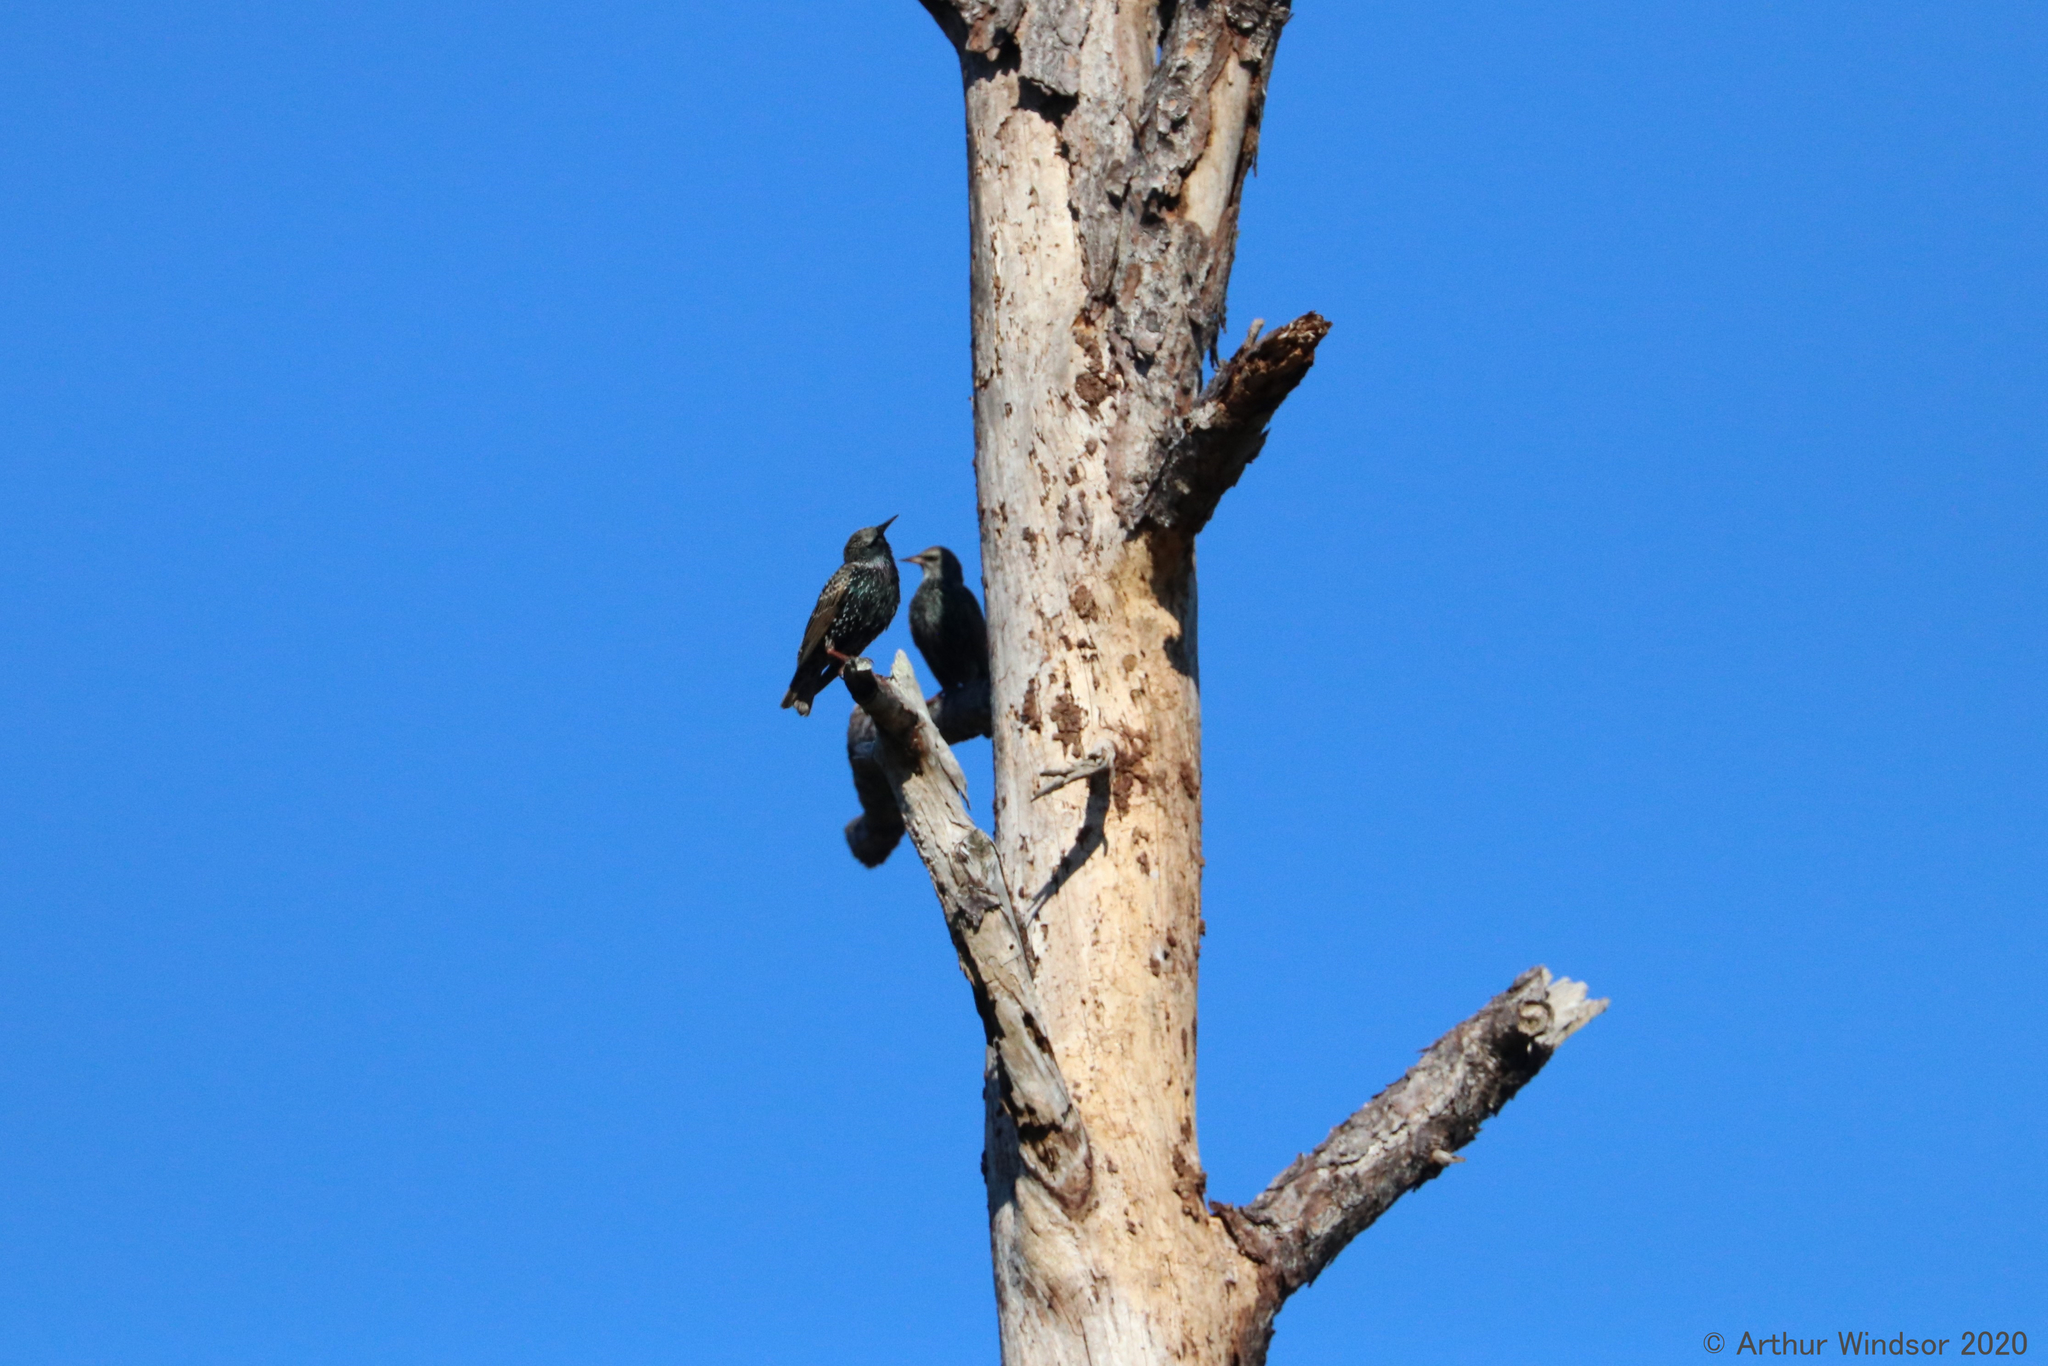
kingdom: Animalia
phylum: Chordata
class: Aves
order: Passeriformes
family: Sturnidae
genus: Sturnus
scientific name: Sturnus vulgaris
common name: Common starling
